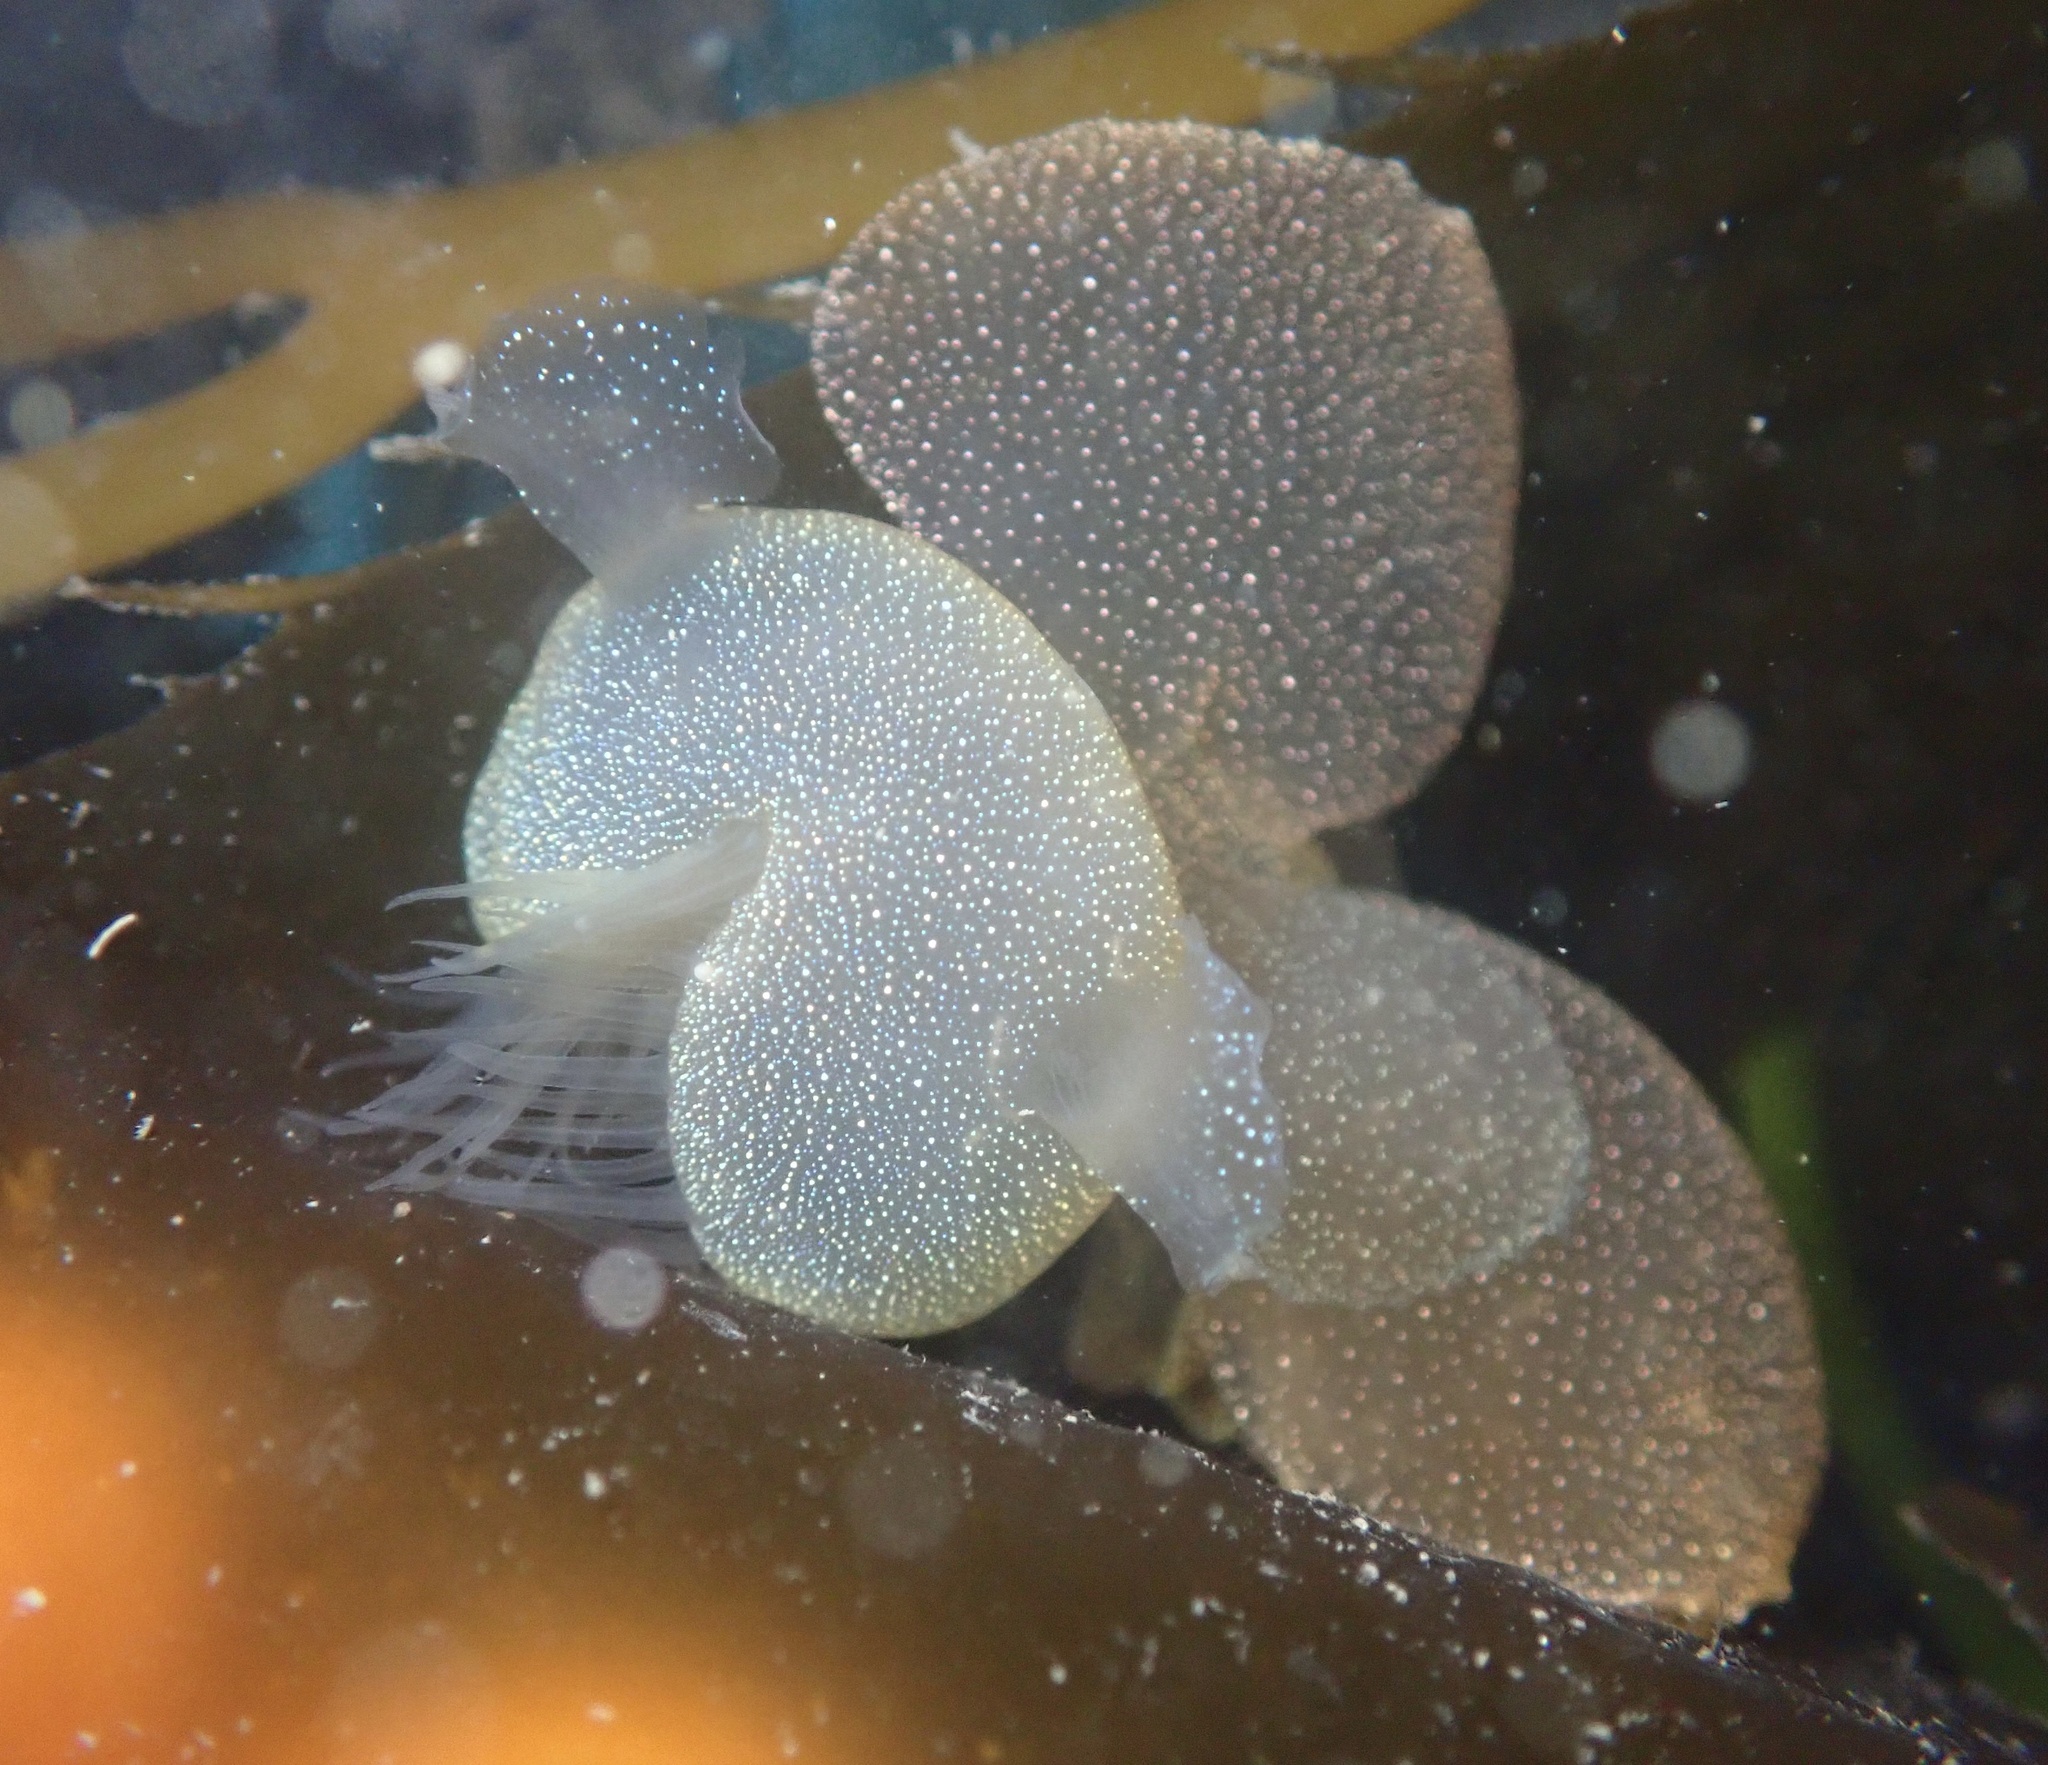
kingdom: Animalia
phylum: Mollusca
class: Gastropoda
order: Nudibranchia
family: Tethydidae
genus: Melibe
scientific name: Melibe leonina
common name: Lion nudibranch
